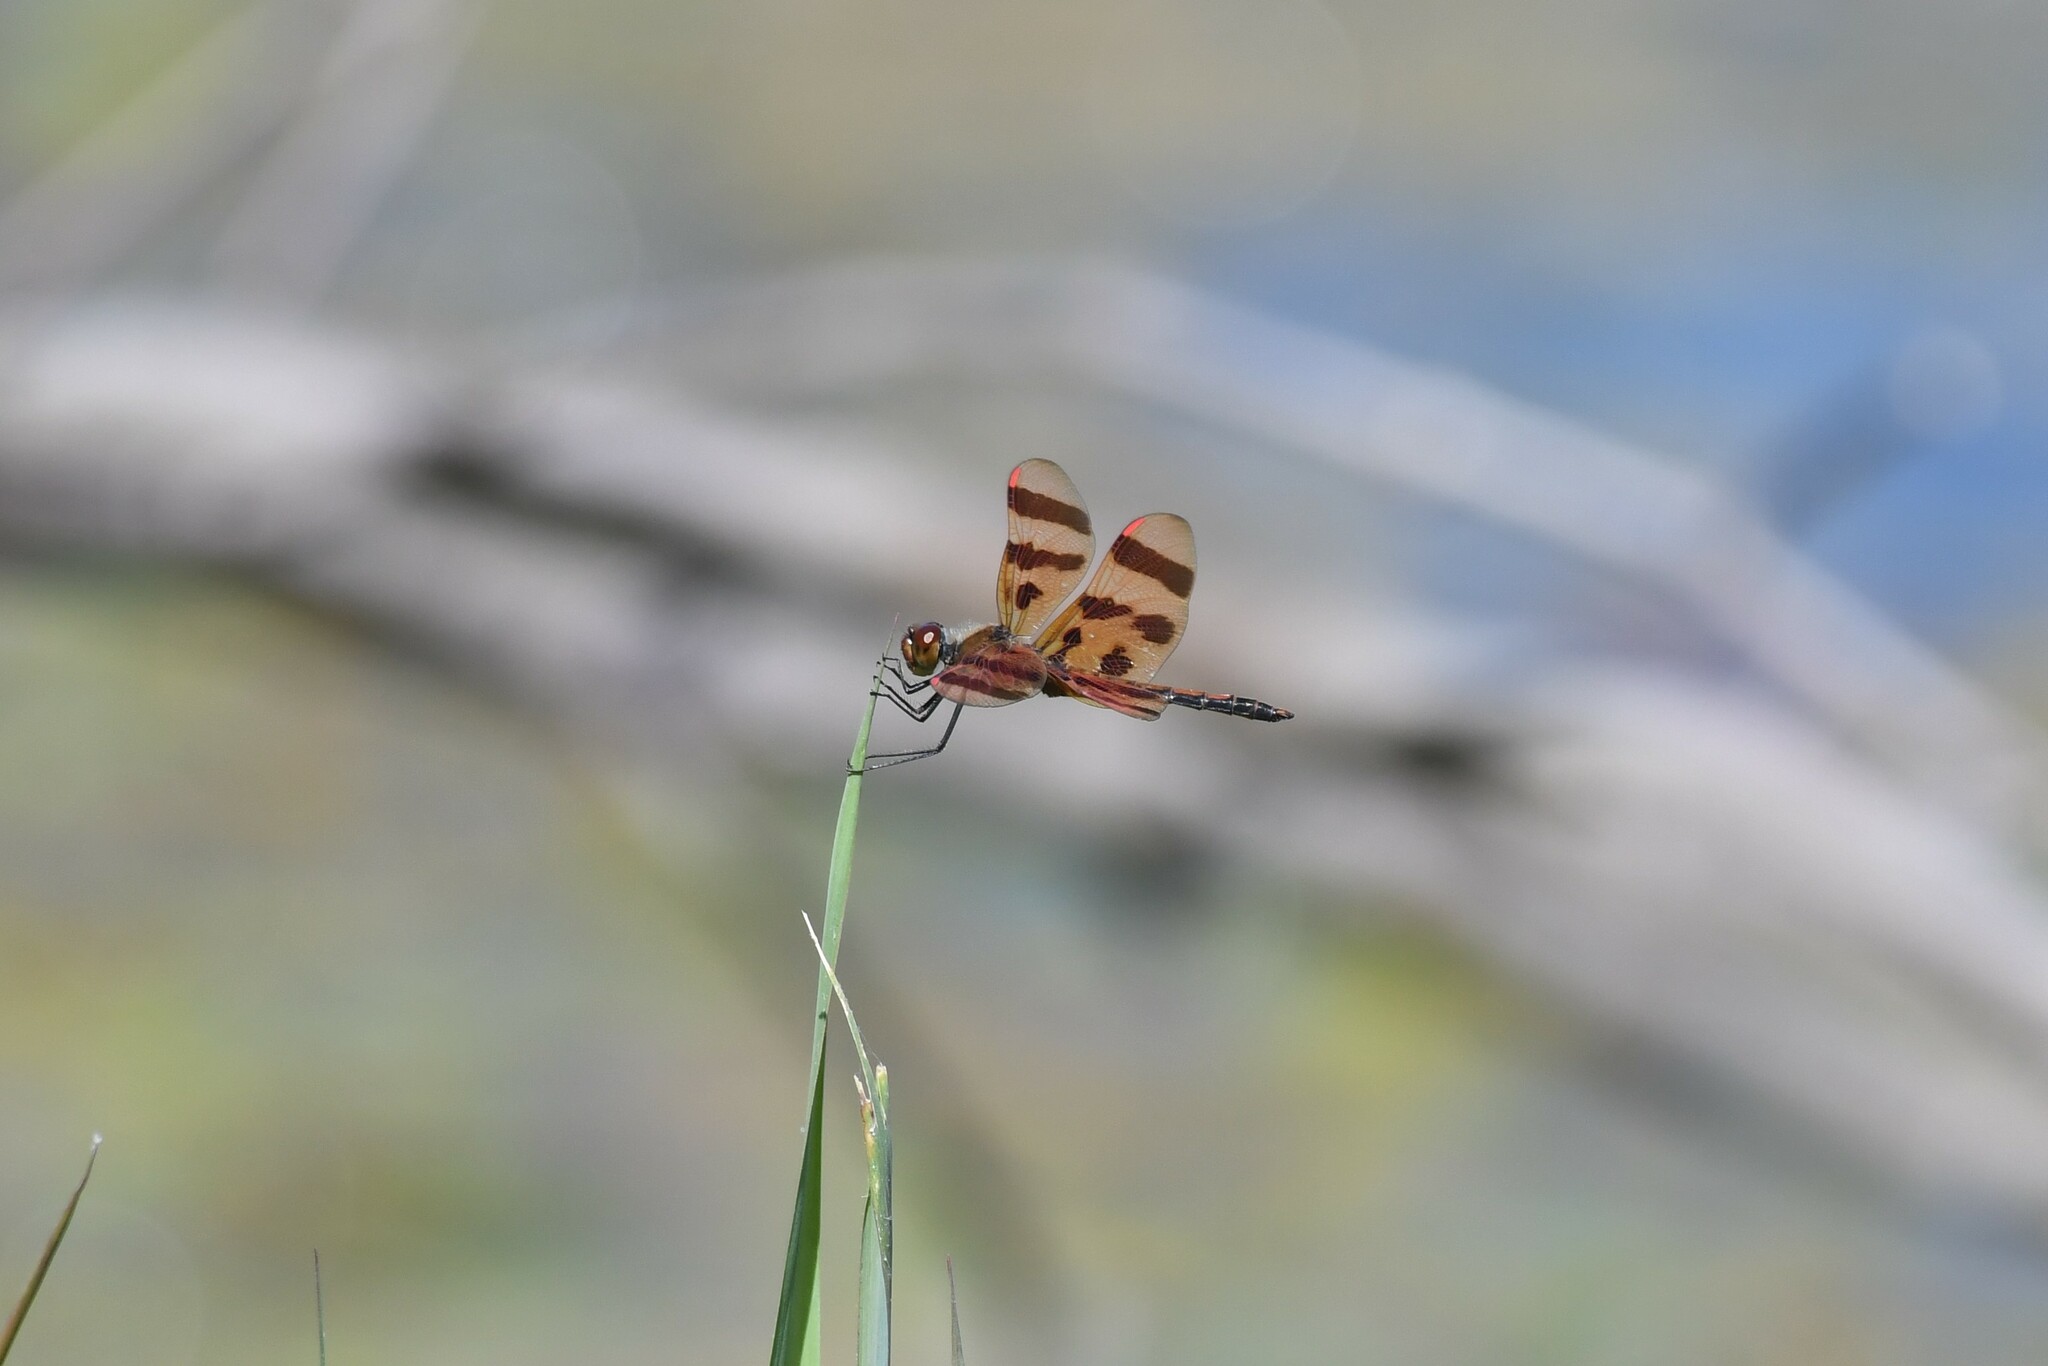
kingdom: Animalia
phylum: Arthropoda
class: Insecta
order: Odonata
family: Libellulidae
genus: Celithemis
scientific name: Celithemis eponina
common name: Halloween pennant
